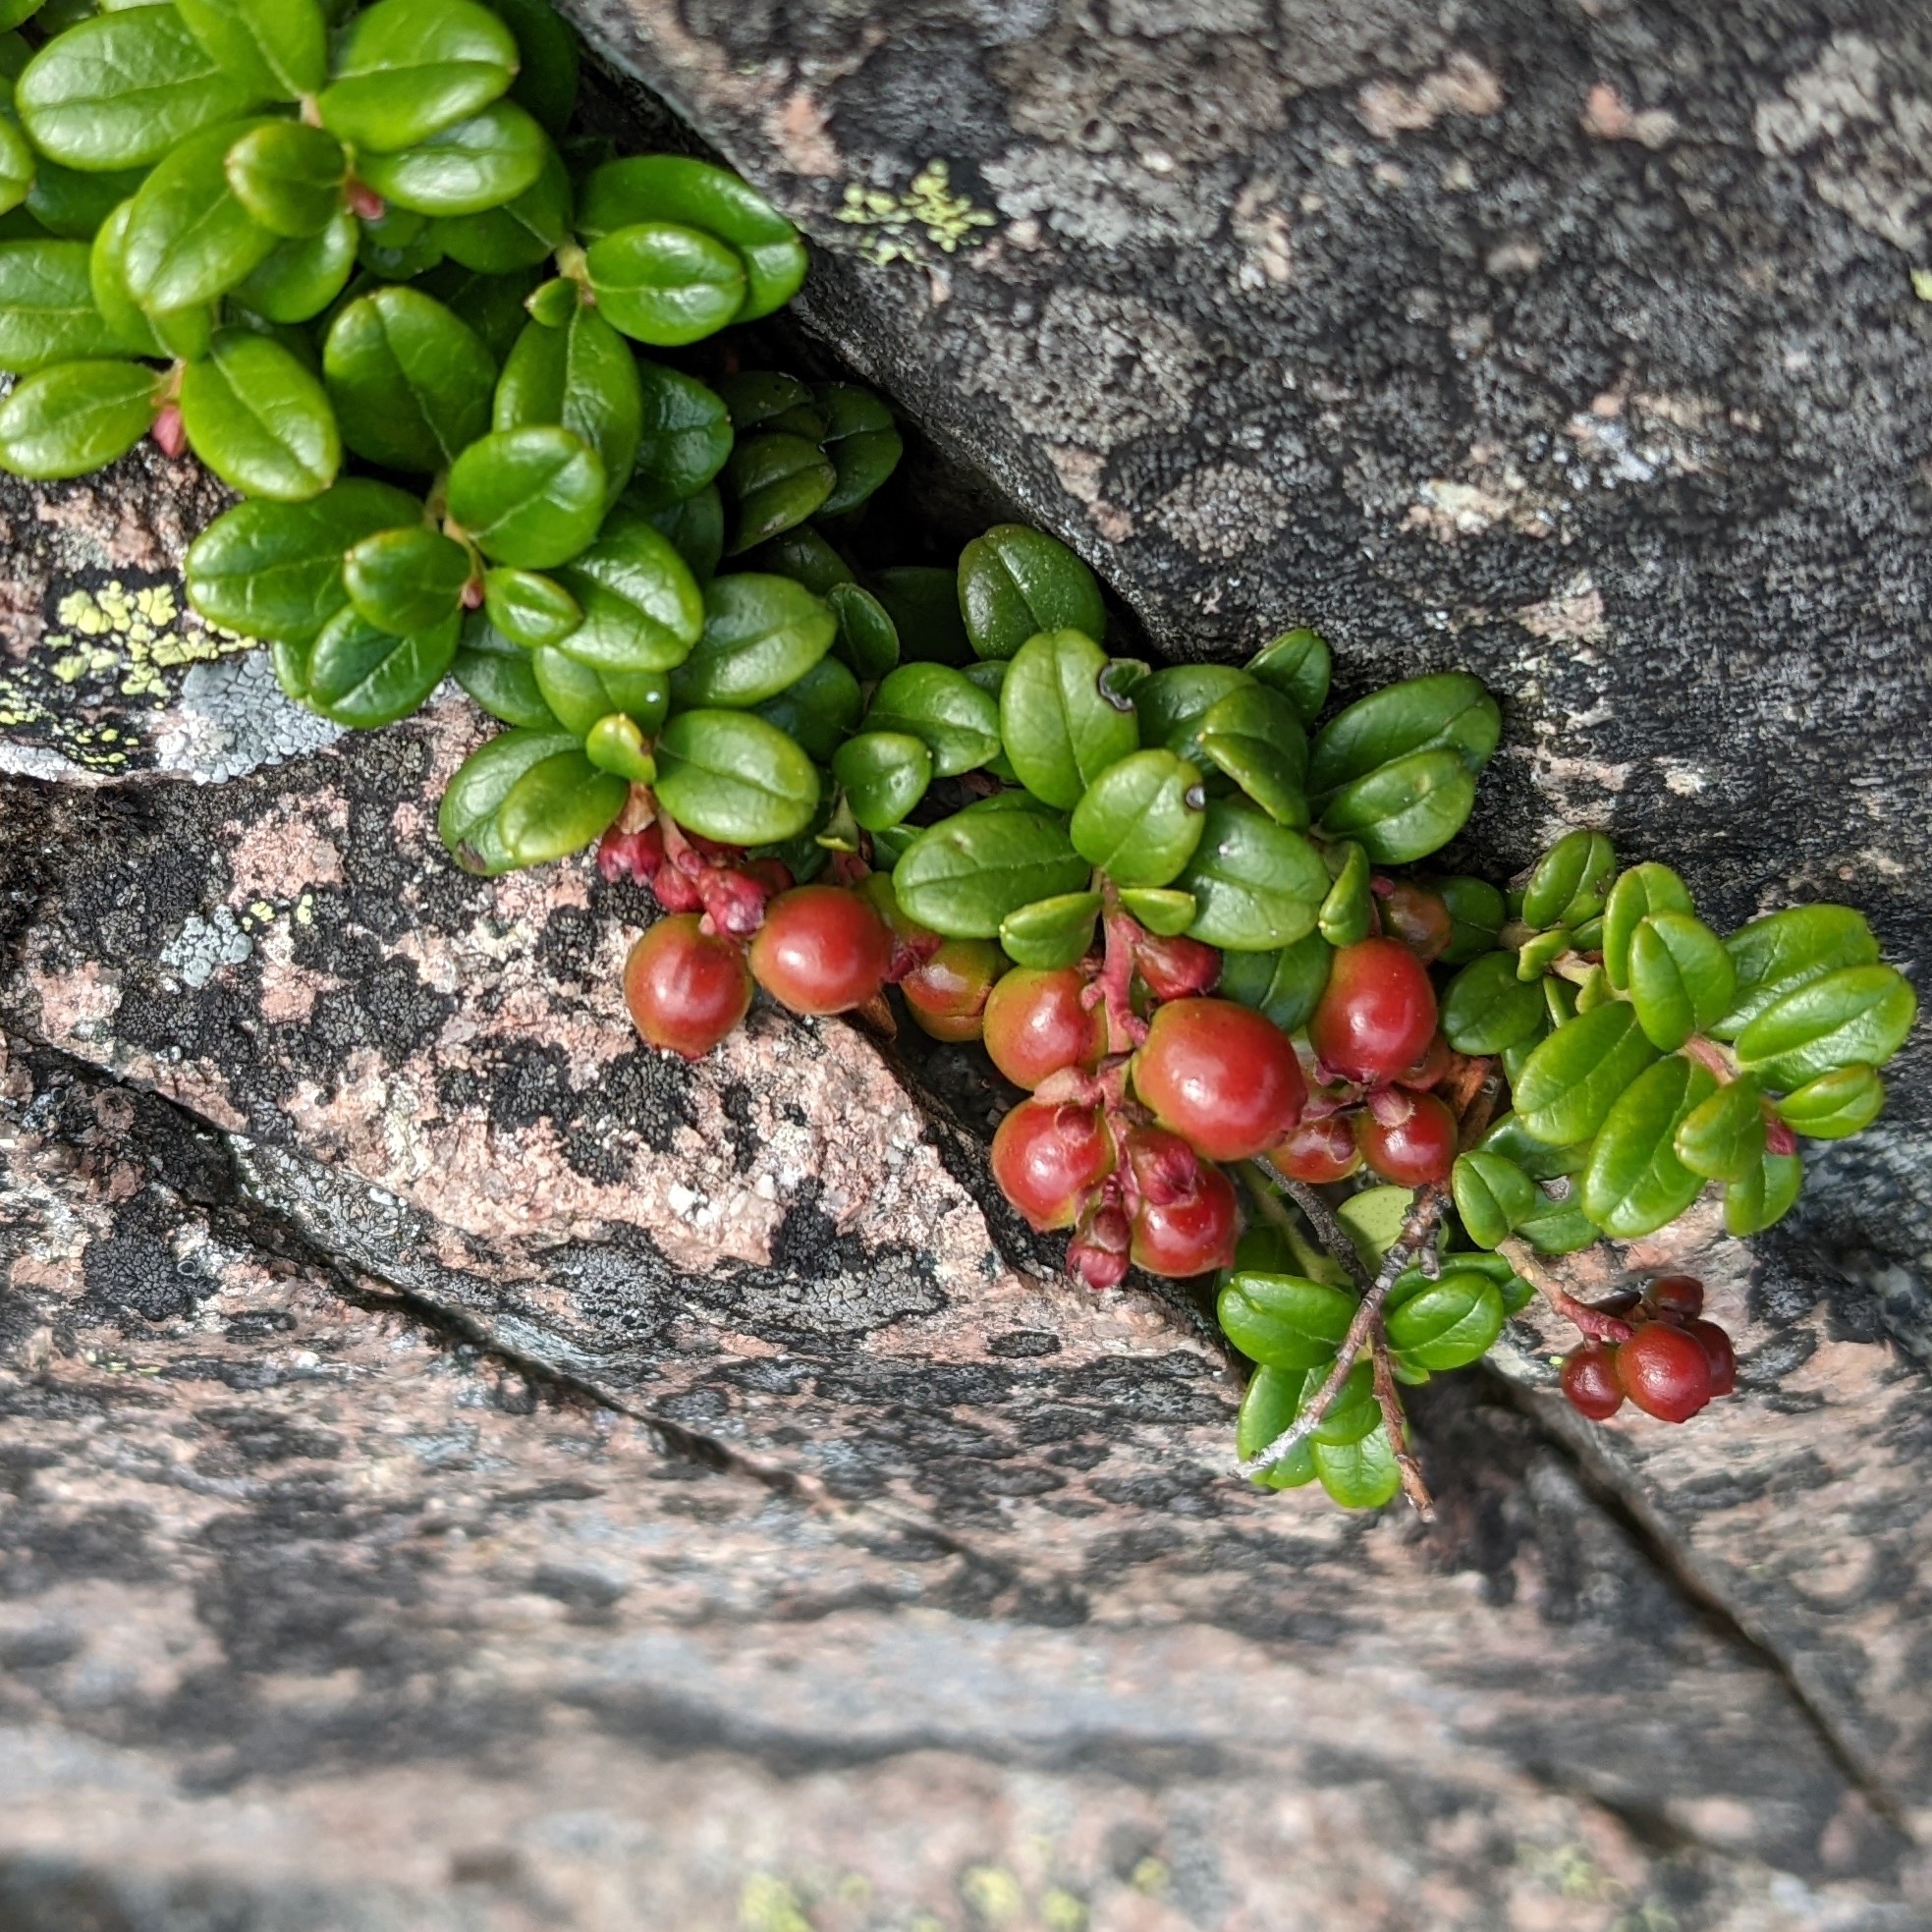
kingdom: Plantae
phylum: Tracheophyta
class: Magnoliopsida
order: Ericales
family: Ericaceae
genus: Vaccinium
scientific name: Vaccinium vitis-idaea
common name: Cowberry
